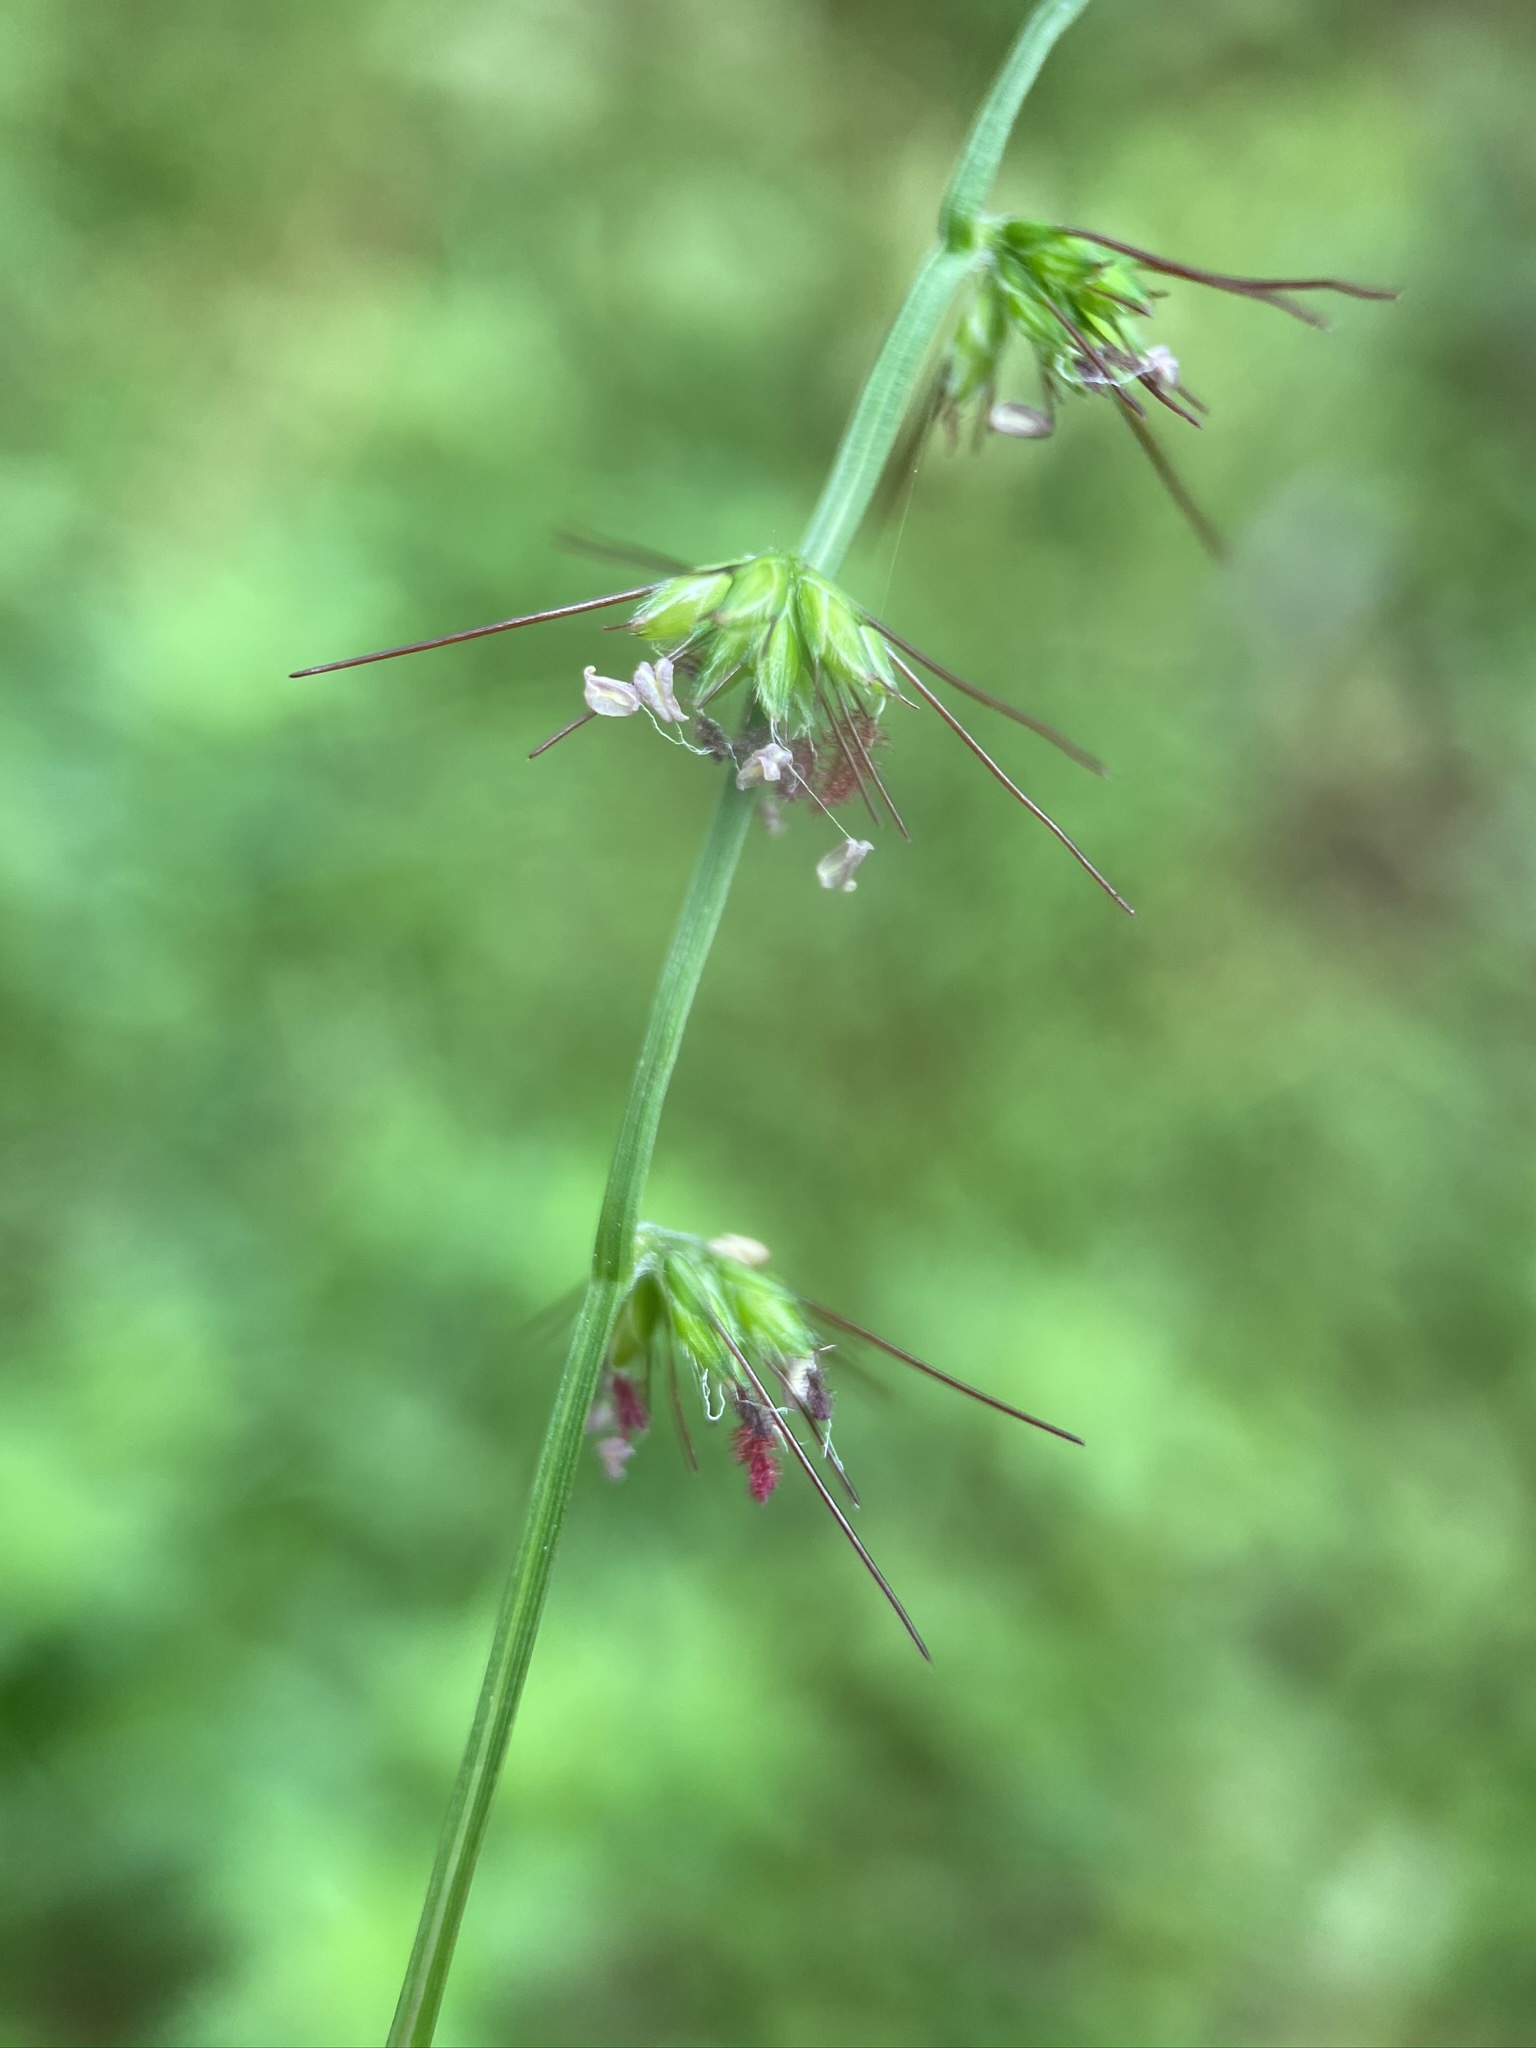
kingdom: Plantae
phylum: Tracheophyta
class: Liliopsida
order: Poales
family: Poaceae
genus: Oplismenus
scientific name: Oplismenus hirtellus
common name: Basketgrass
